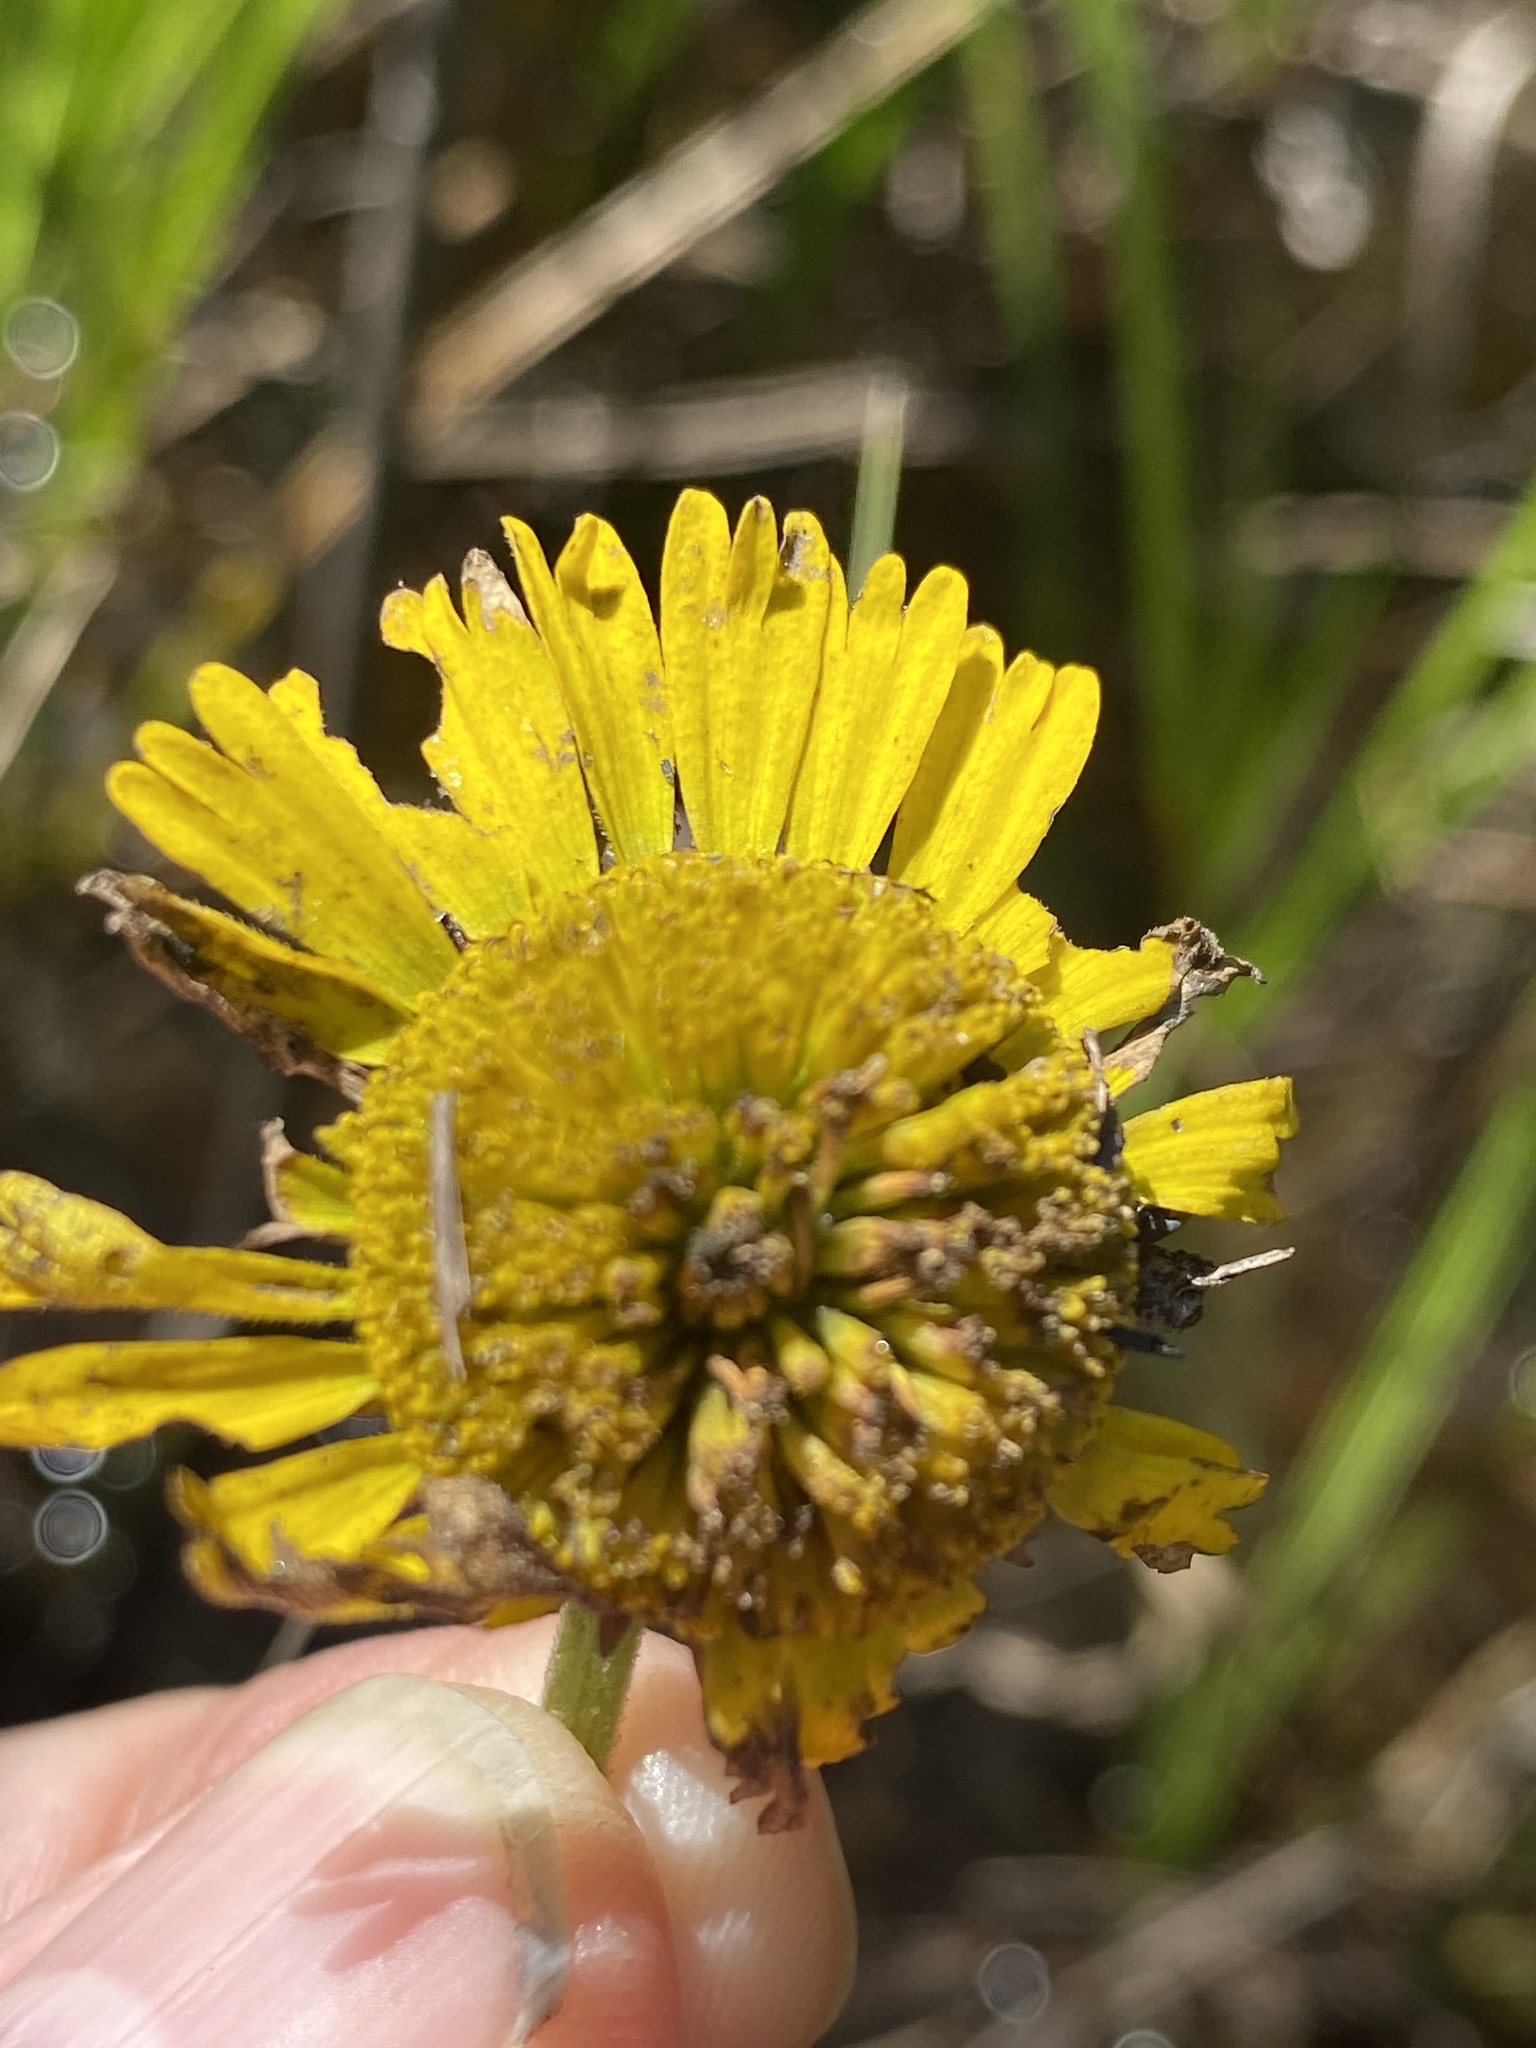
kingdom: Plantae
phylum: Tracheophyta
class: Magnoliopsida
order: Asterales
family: Asteraceae
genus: Helenium
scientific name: Helenium pinnatifidum
